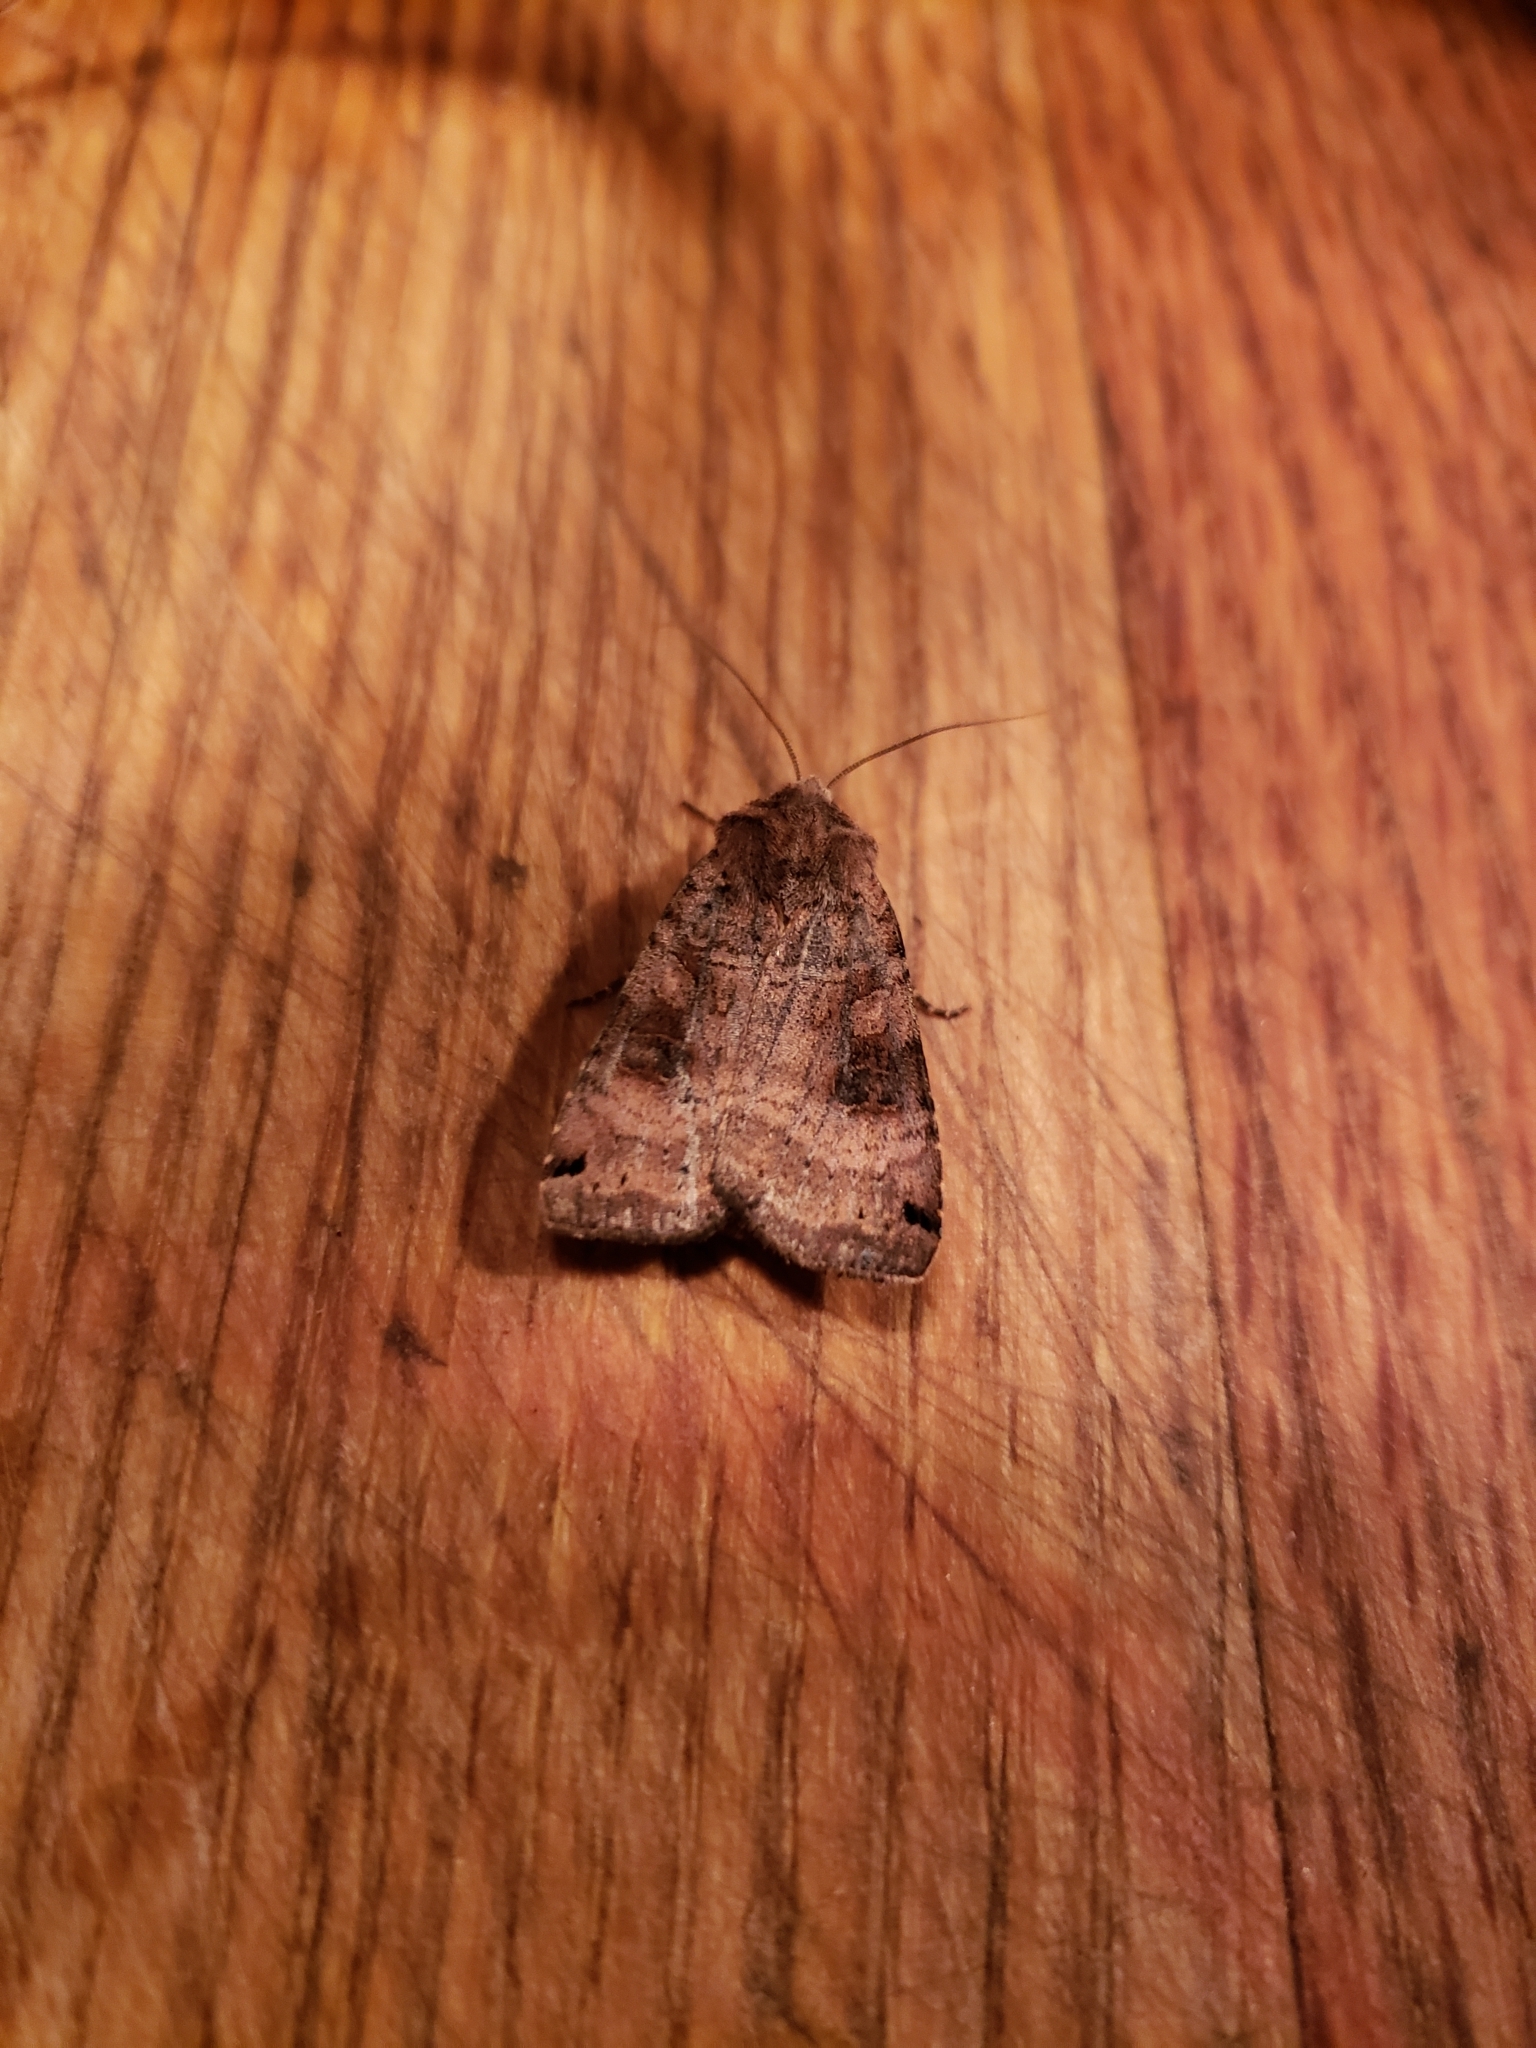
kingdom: Animalia
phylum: Arthropoda
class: Insecta
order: Lepidoptera
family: Noctuidae
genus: Xestia
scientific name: Xestia smithii
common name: Smith's dart
